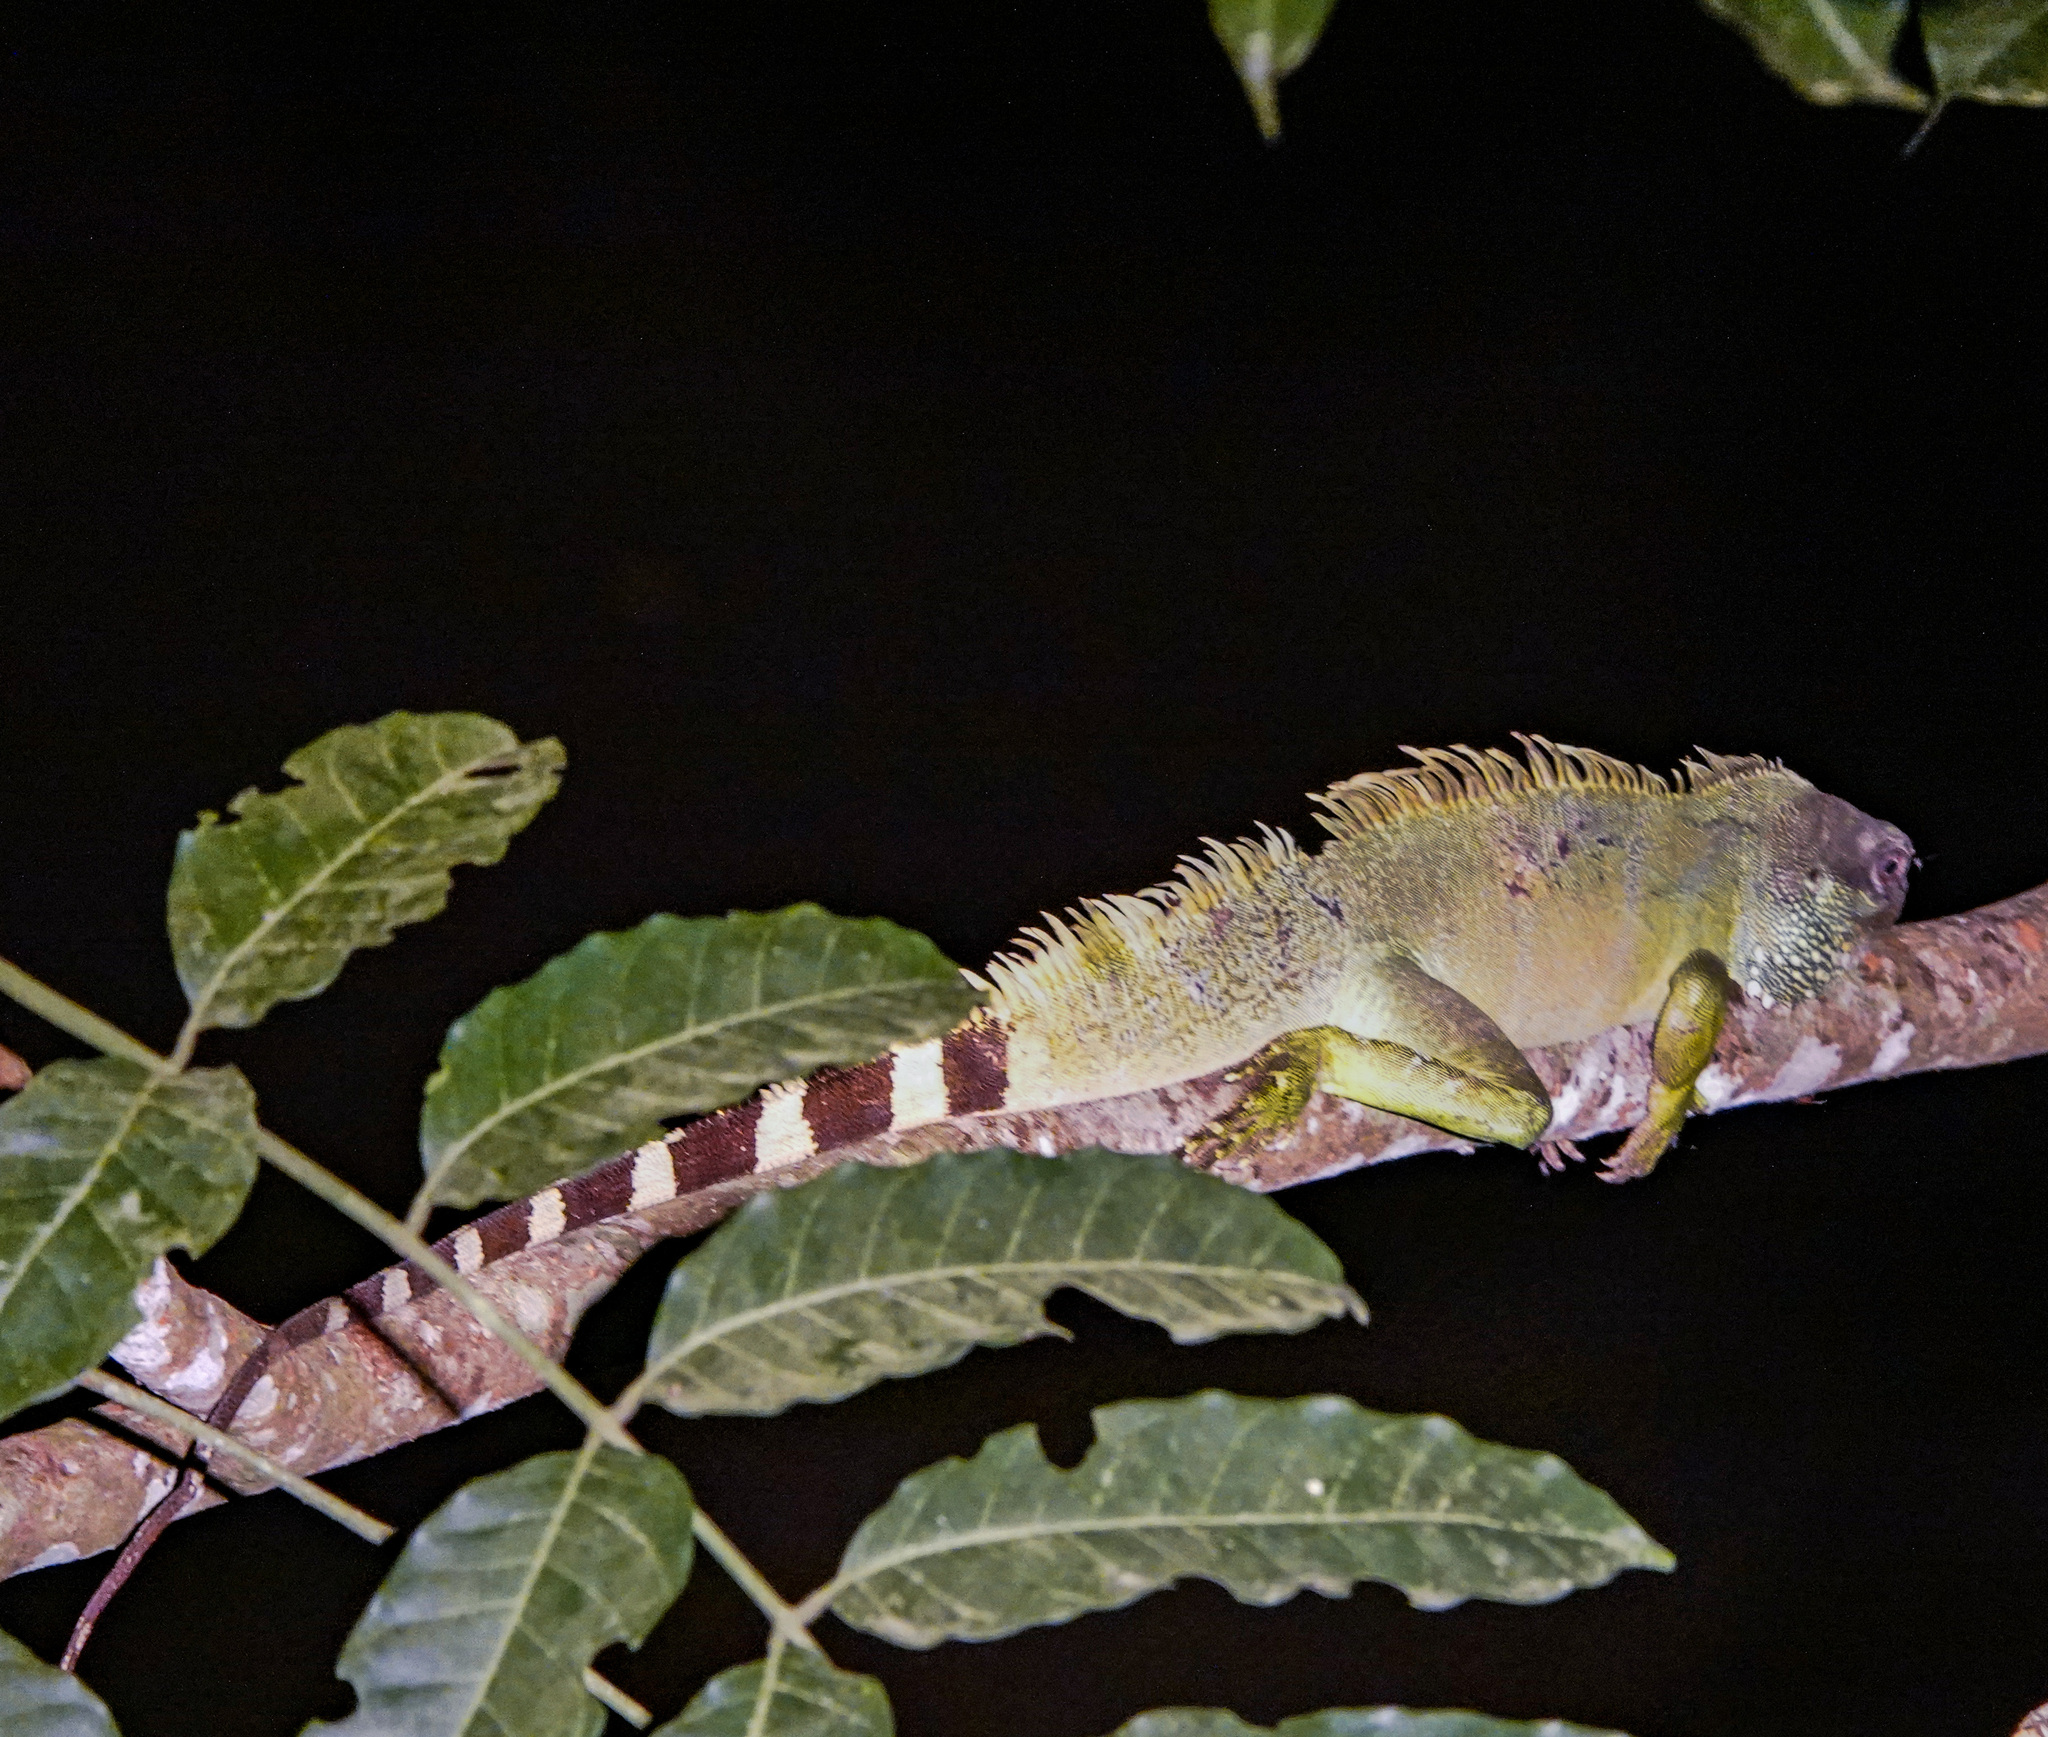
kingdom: Animalia
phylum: Chordata
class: Squamata
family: Agamidae
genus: Physignathus
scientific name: Physignathus cocincinus
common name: Asian water dragon
